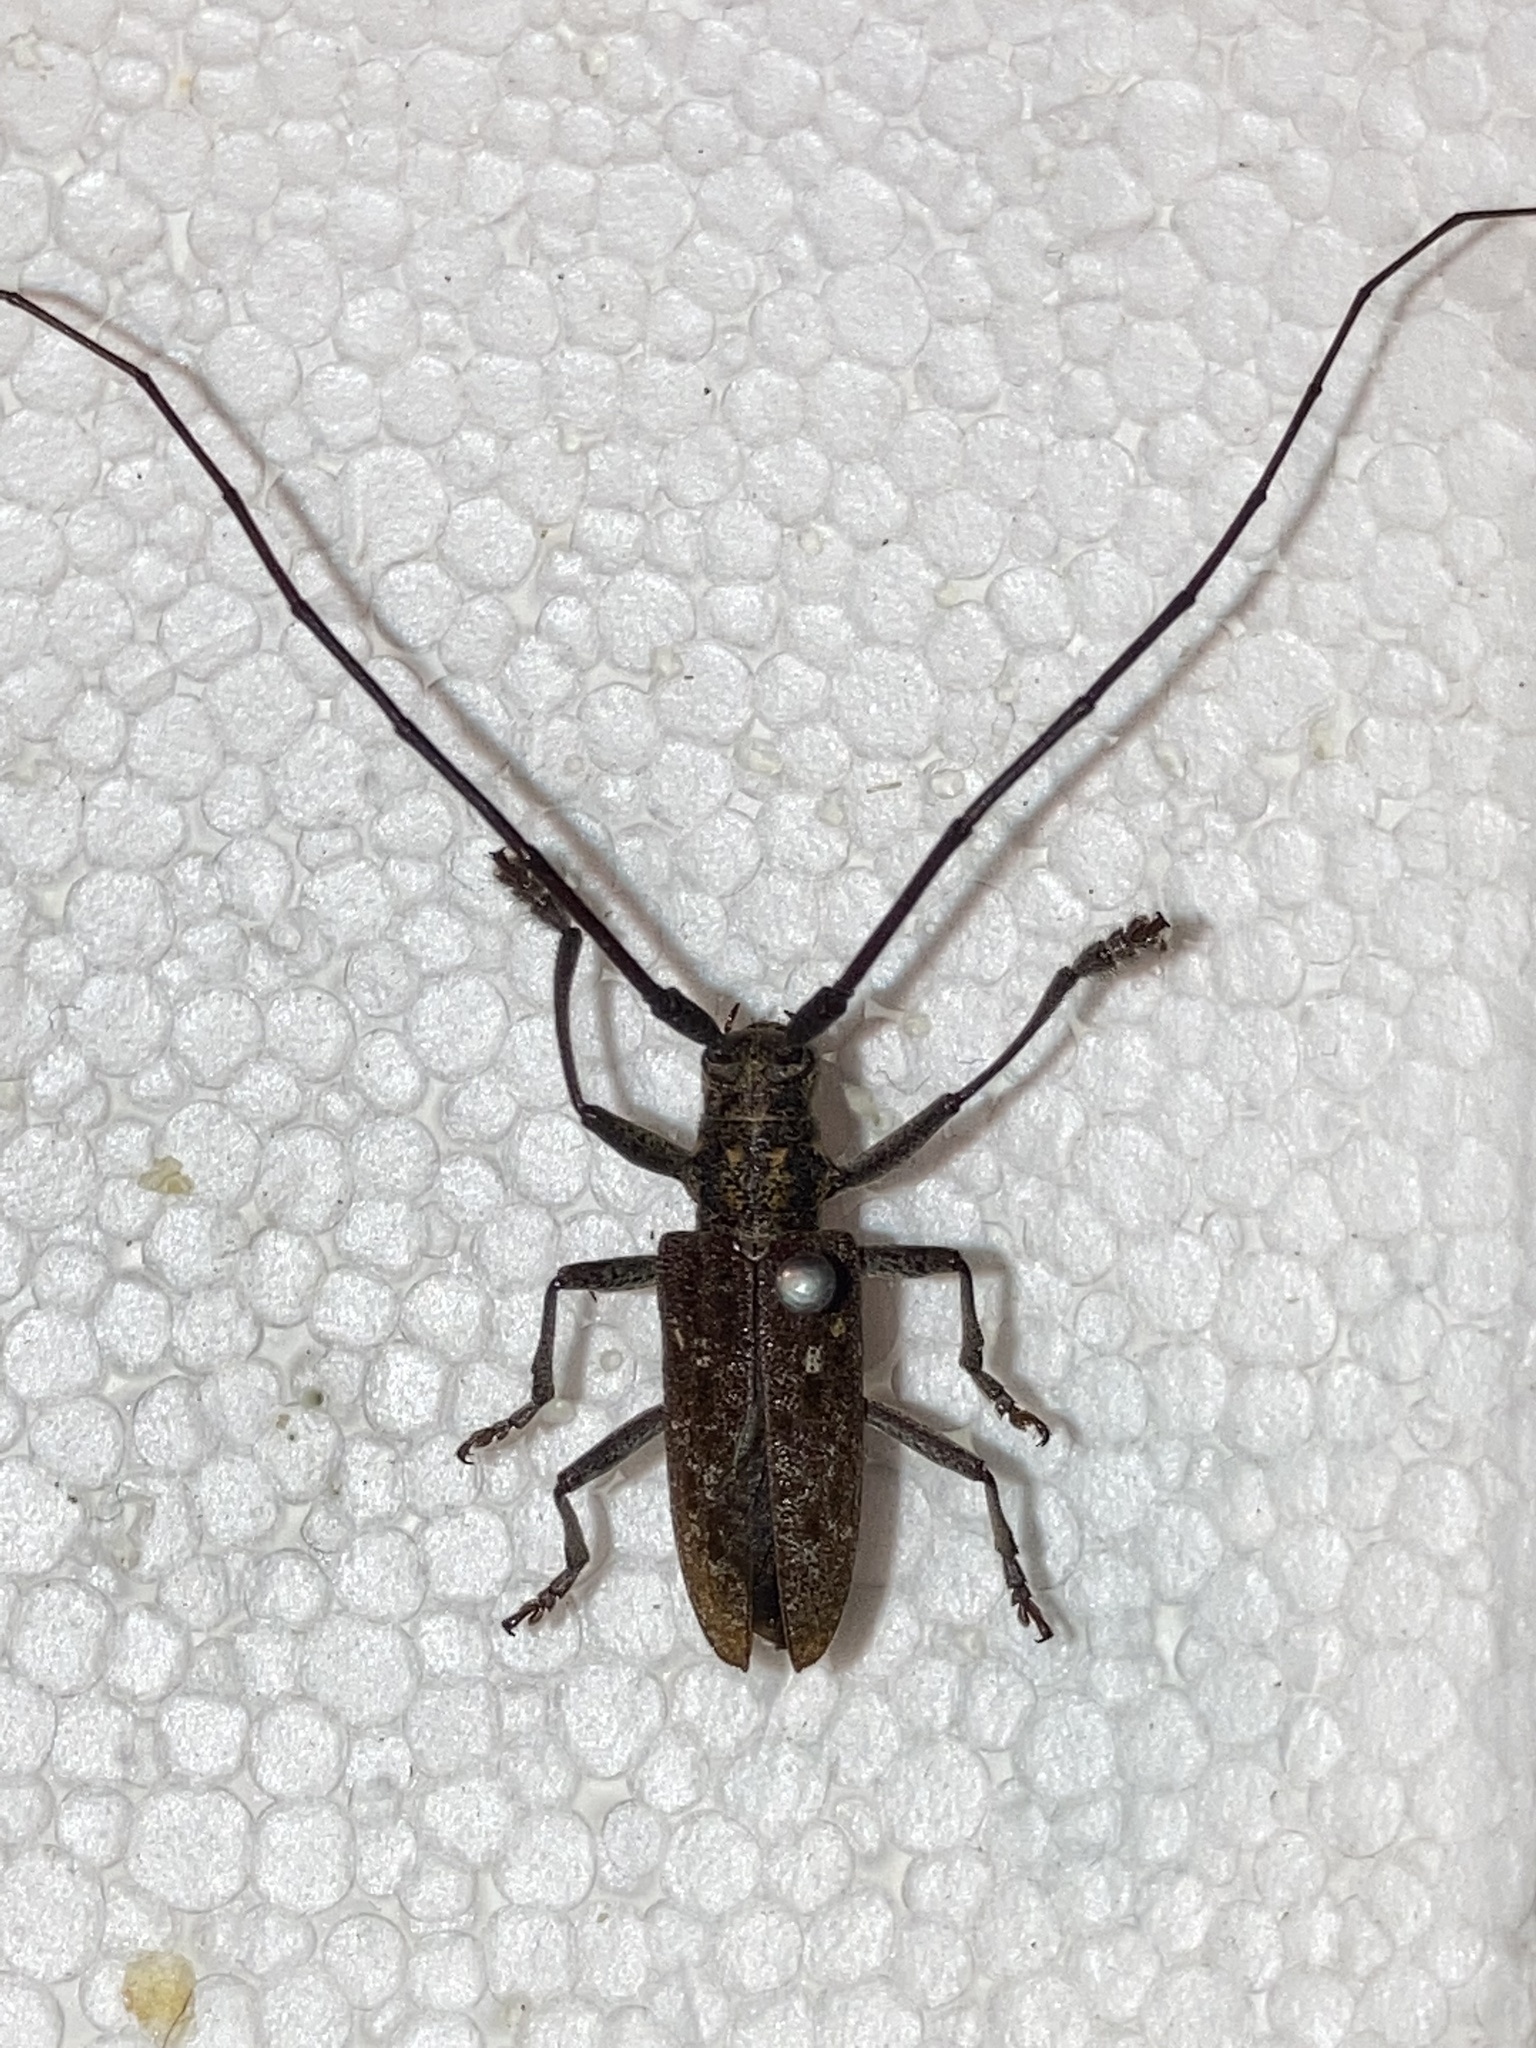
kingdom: Animalia
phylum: Arthropoda
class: Insecta
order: Coleoptera
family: Cerambycidae
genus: Monochamus
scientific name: Monochamus carolinensis
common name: Carolina pine sawyer
